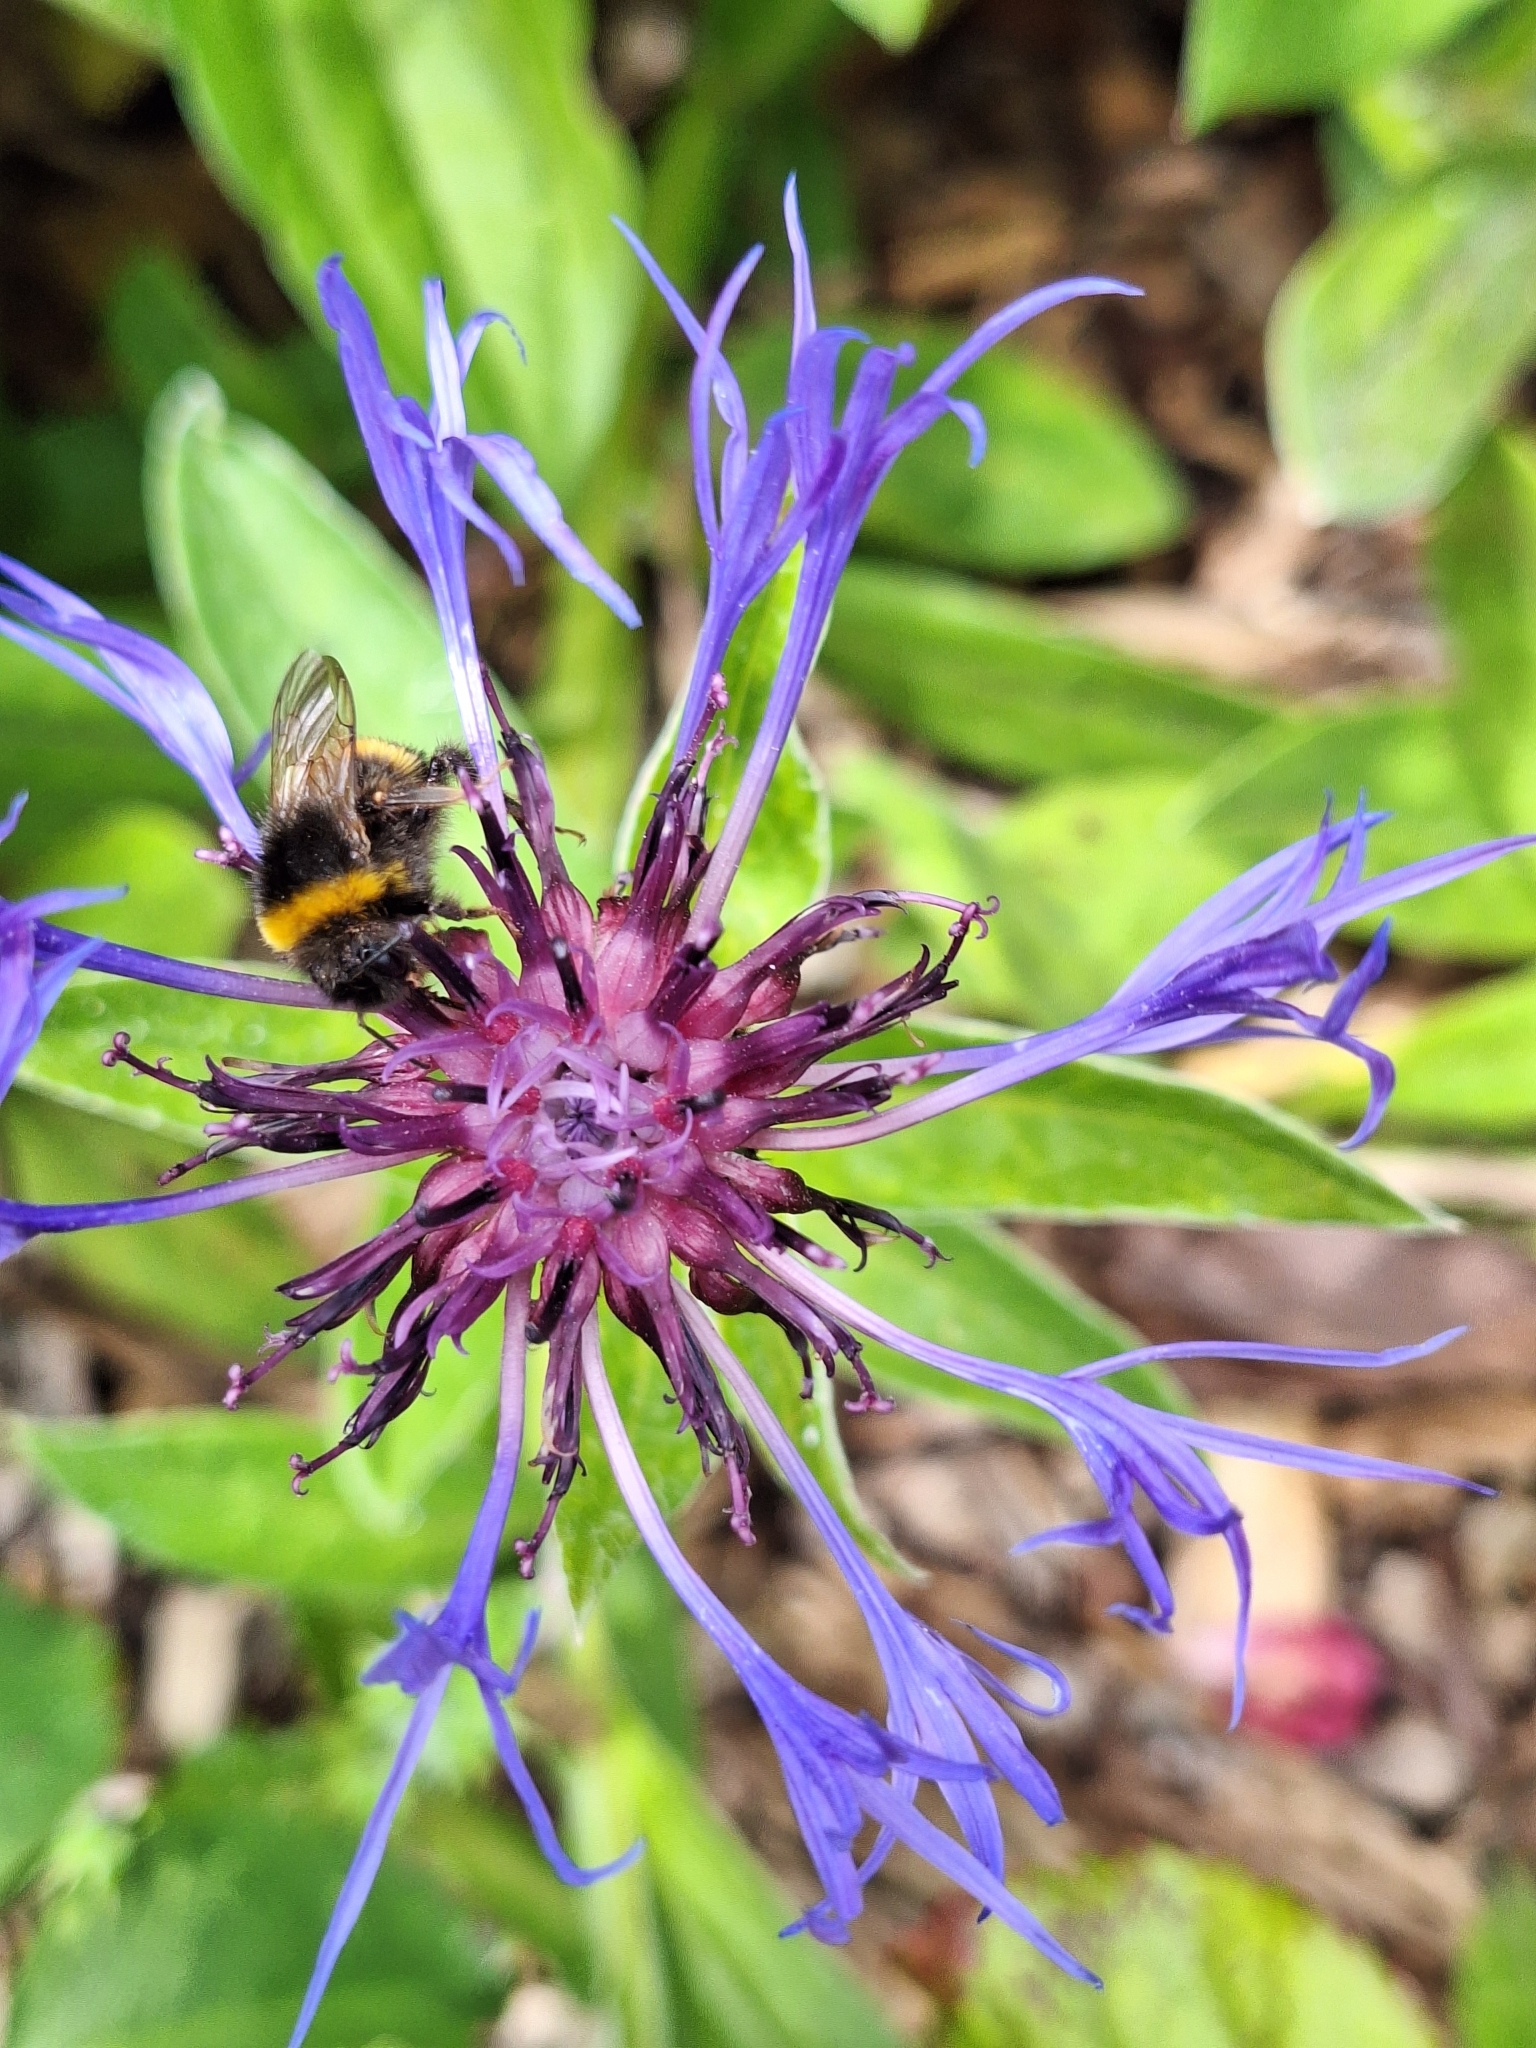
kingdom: Animalia
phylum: Arthropoda
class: Insecta
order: Hymenoptera
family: Apidae
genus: Bombus
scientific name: Bombus terrestris
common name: Buff-tailed bumblebee
